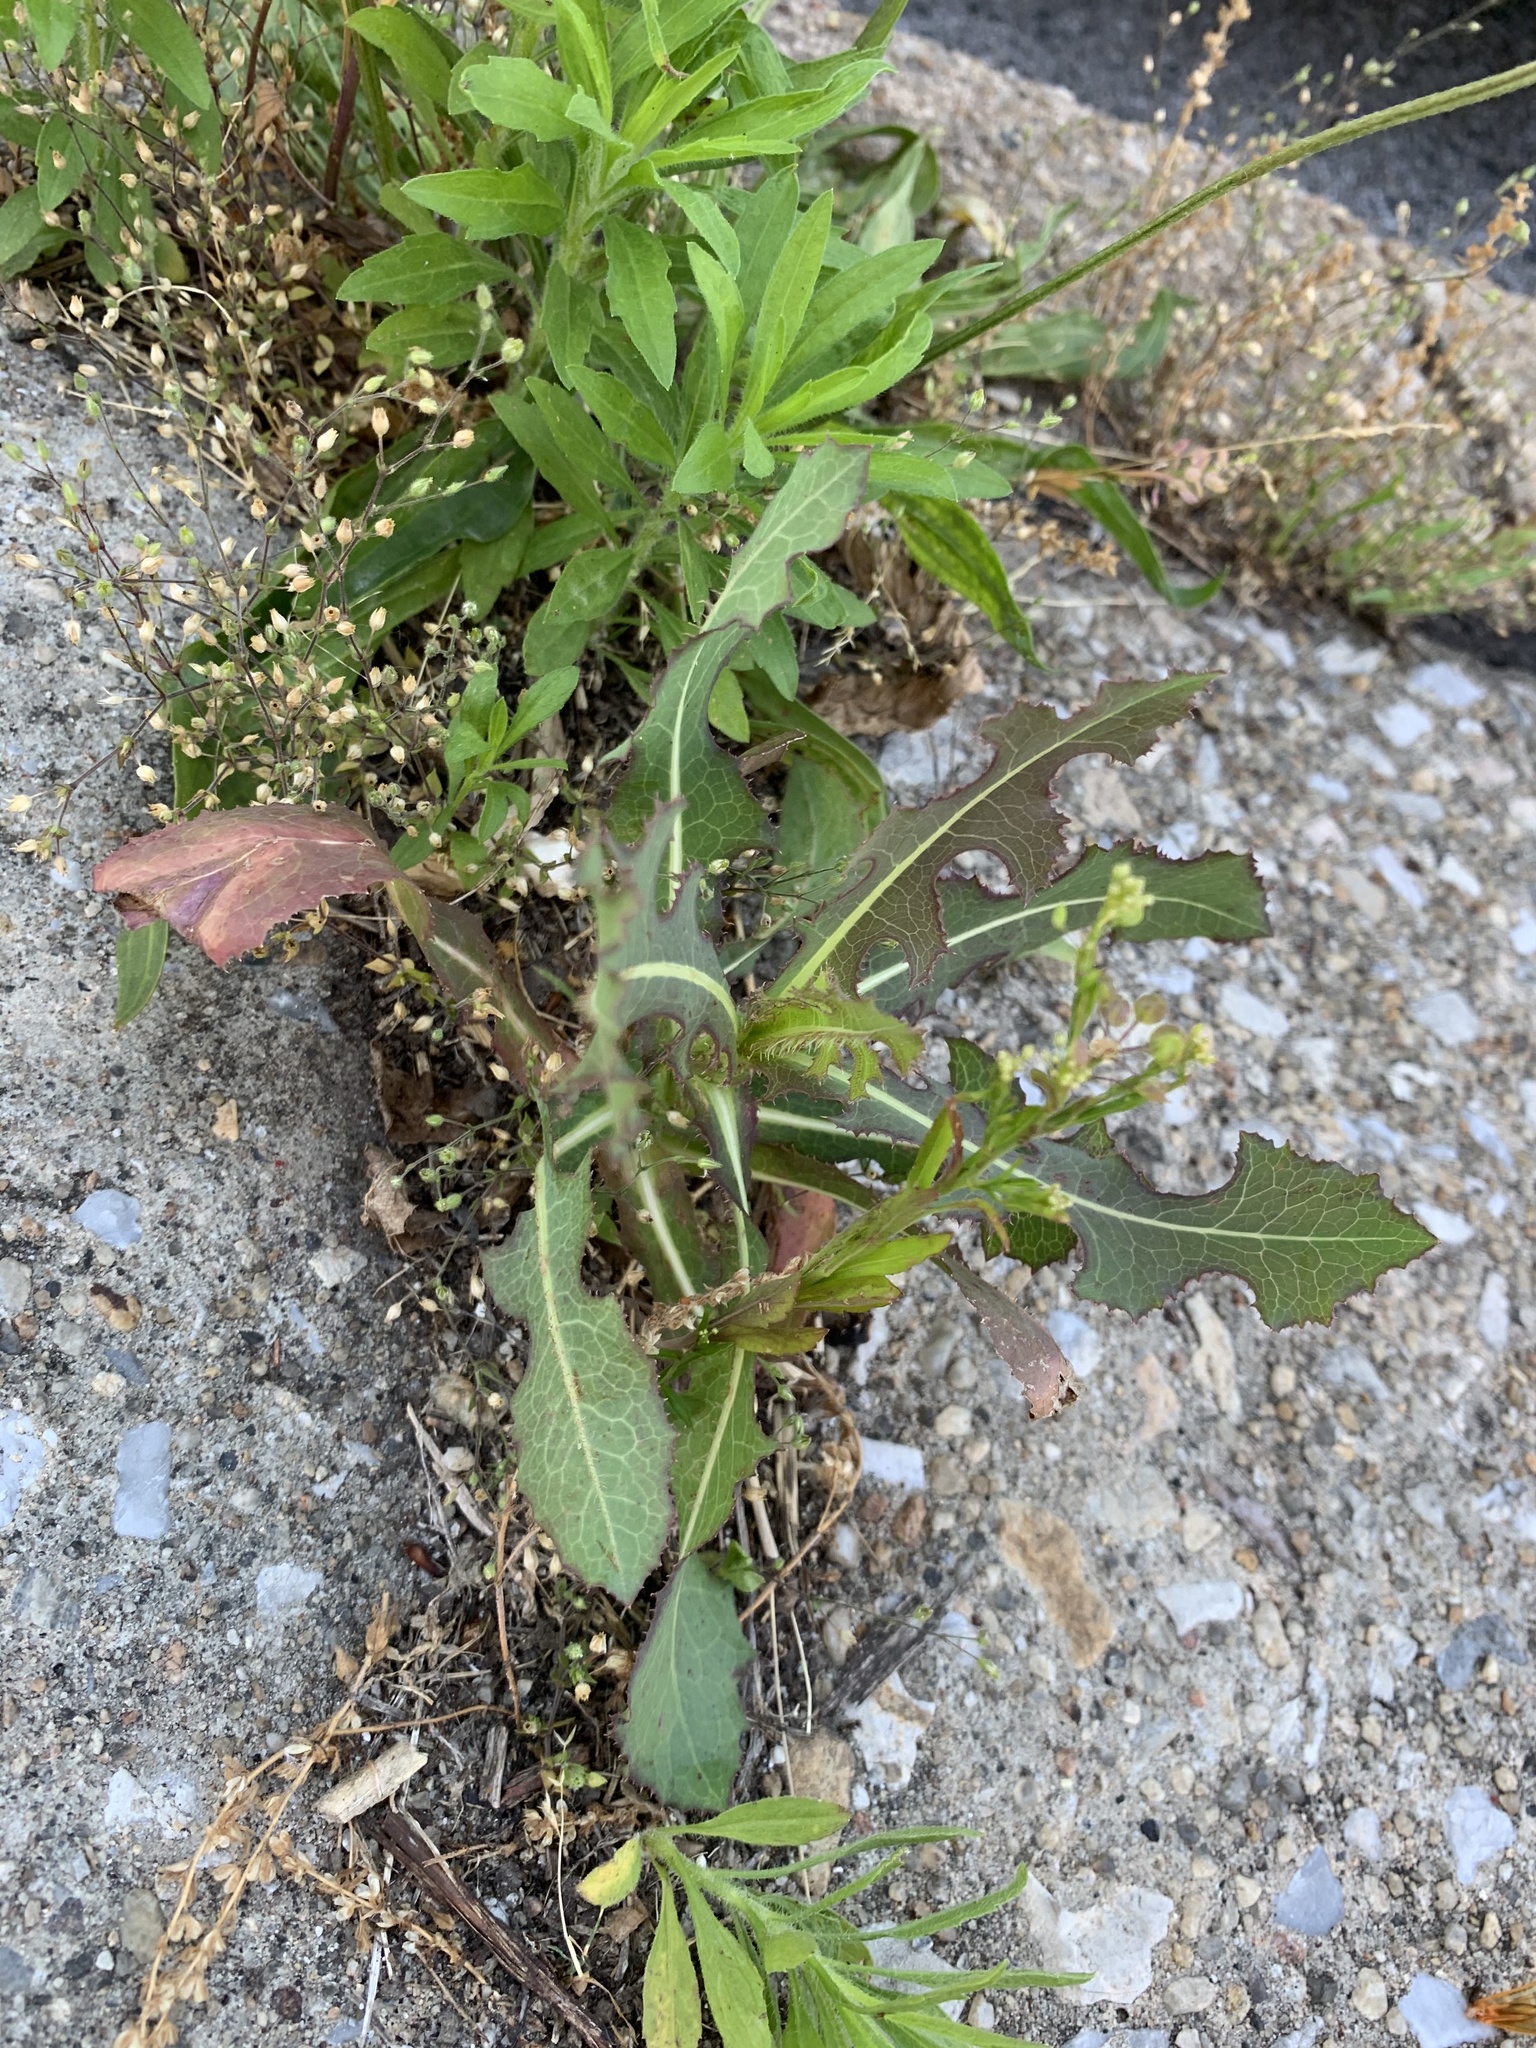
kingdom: Plantae
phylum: Tracheophyta
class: Magnoliopsida
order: Asterales
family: Asteraceae
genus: Lactuca
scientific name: Lactuca serriola
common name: Prickly lettuce
